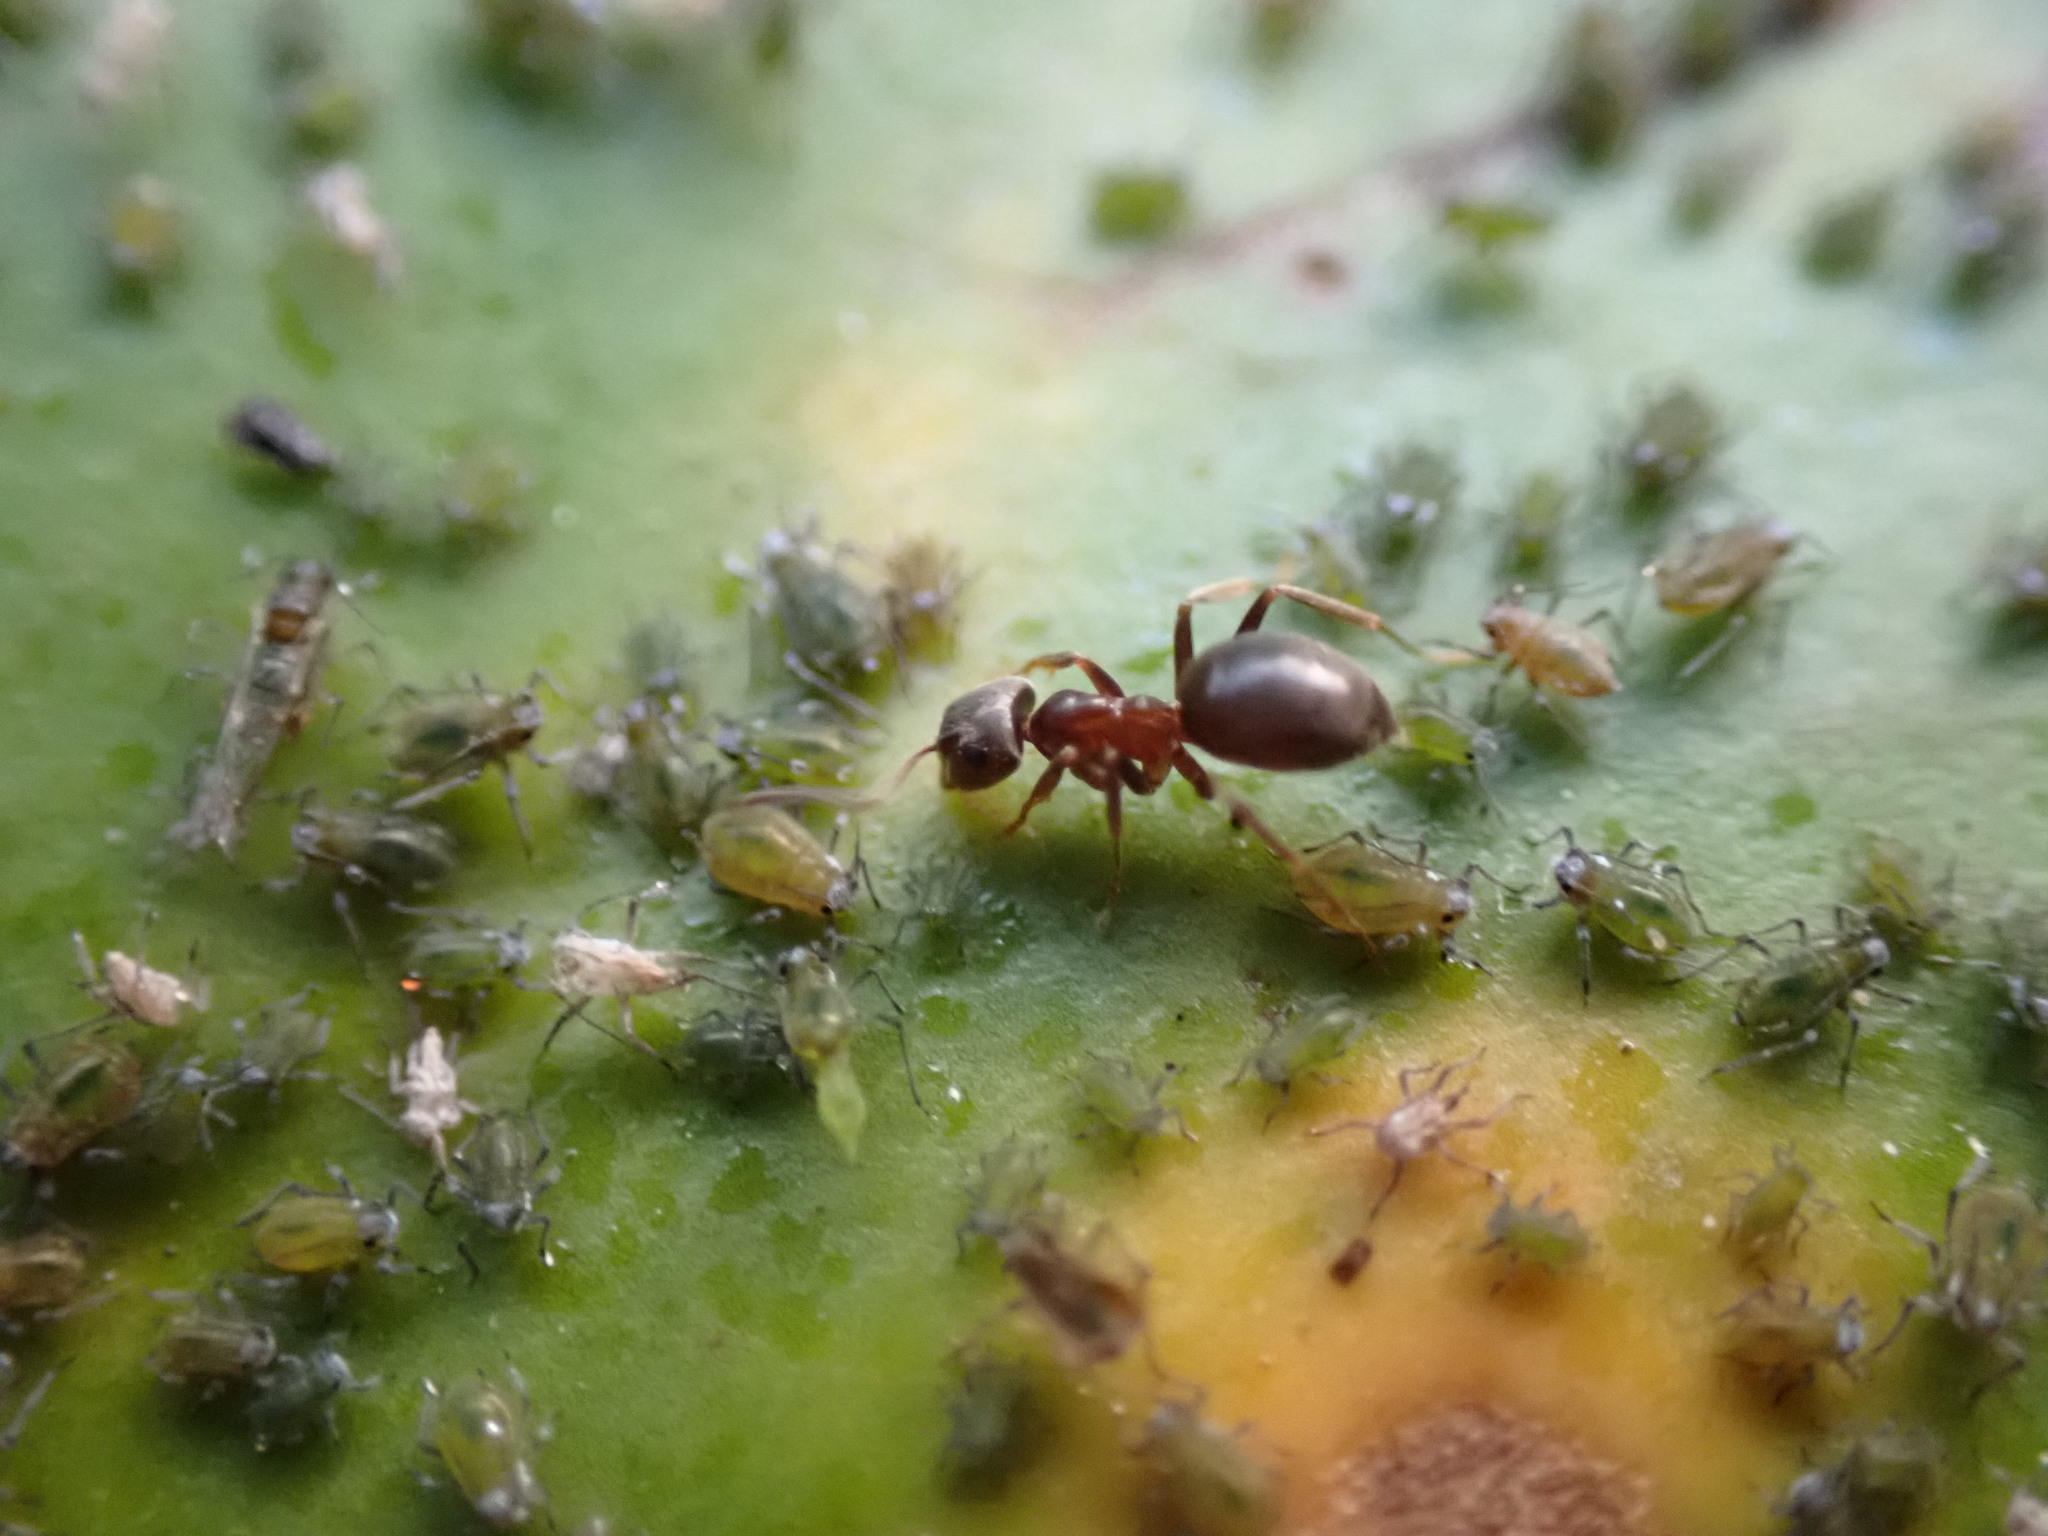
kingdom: Animalia
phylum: Arthropoda
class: Insecta
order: Hymenoptera
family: Formicidae
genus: Lasius
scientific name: Lasius
